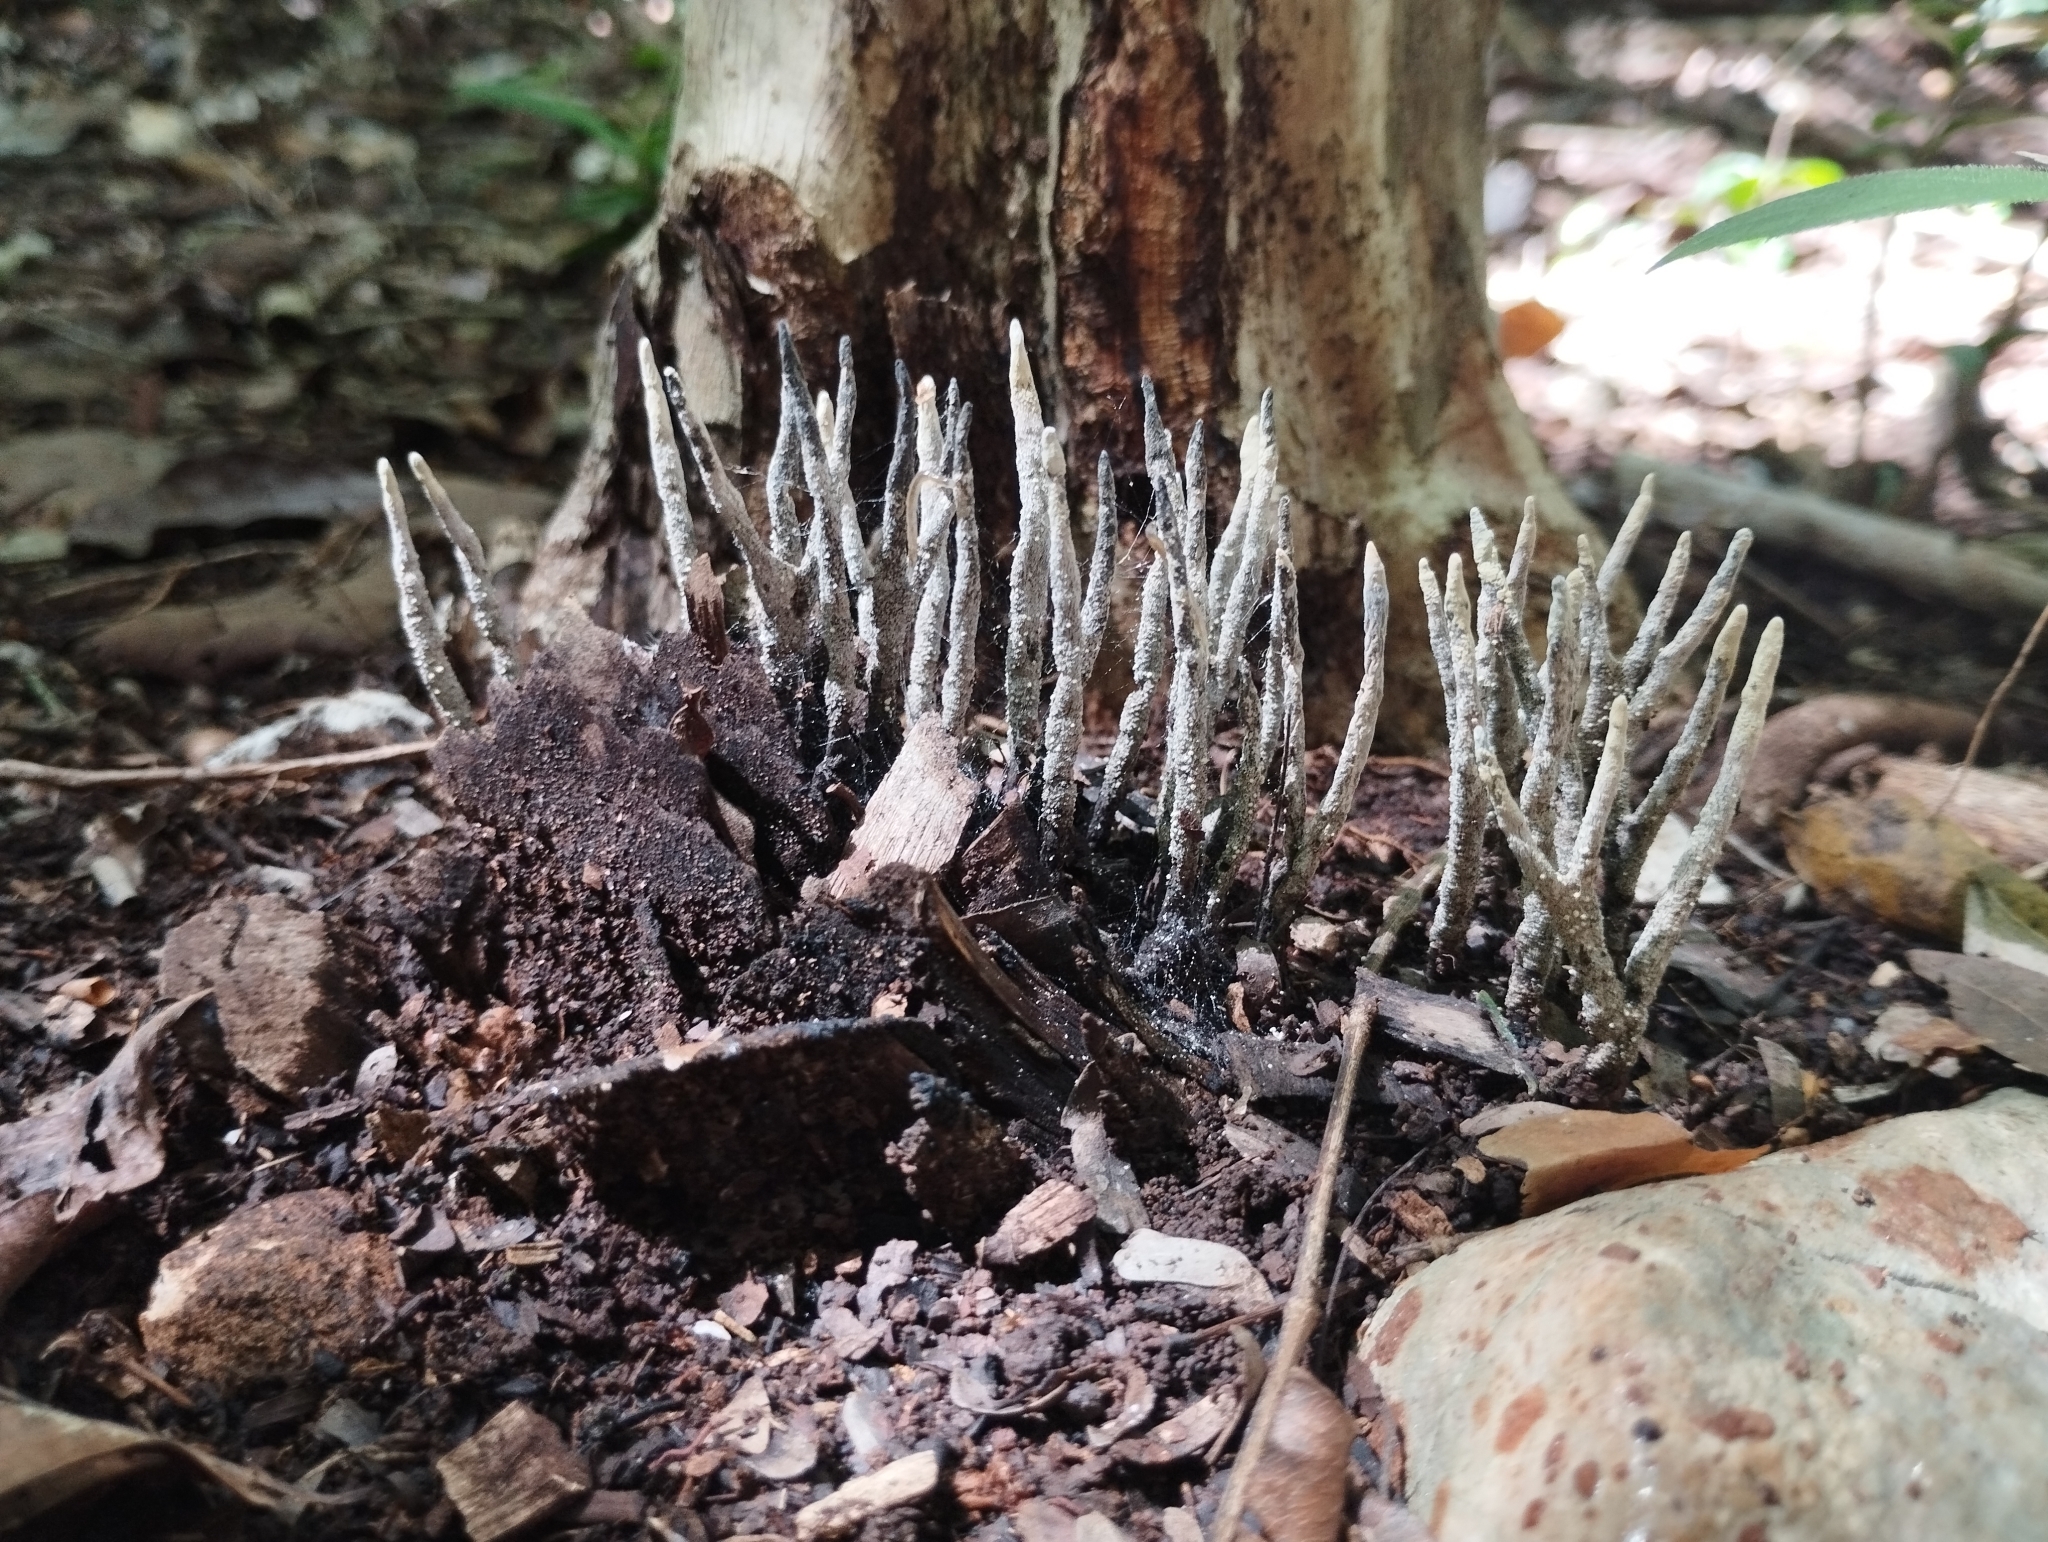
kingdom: Fungi
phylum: Ascomycota
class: Sordariomycetes
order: Xylariales
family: Xylariaceae
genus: Xylaria
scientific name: Xylaria hypoxylon
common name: Candle-snuff fungus
